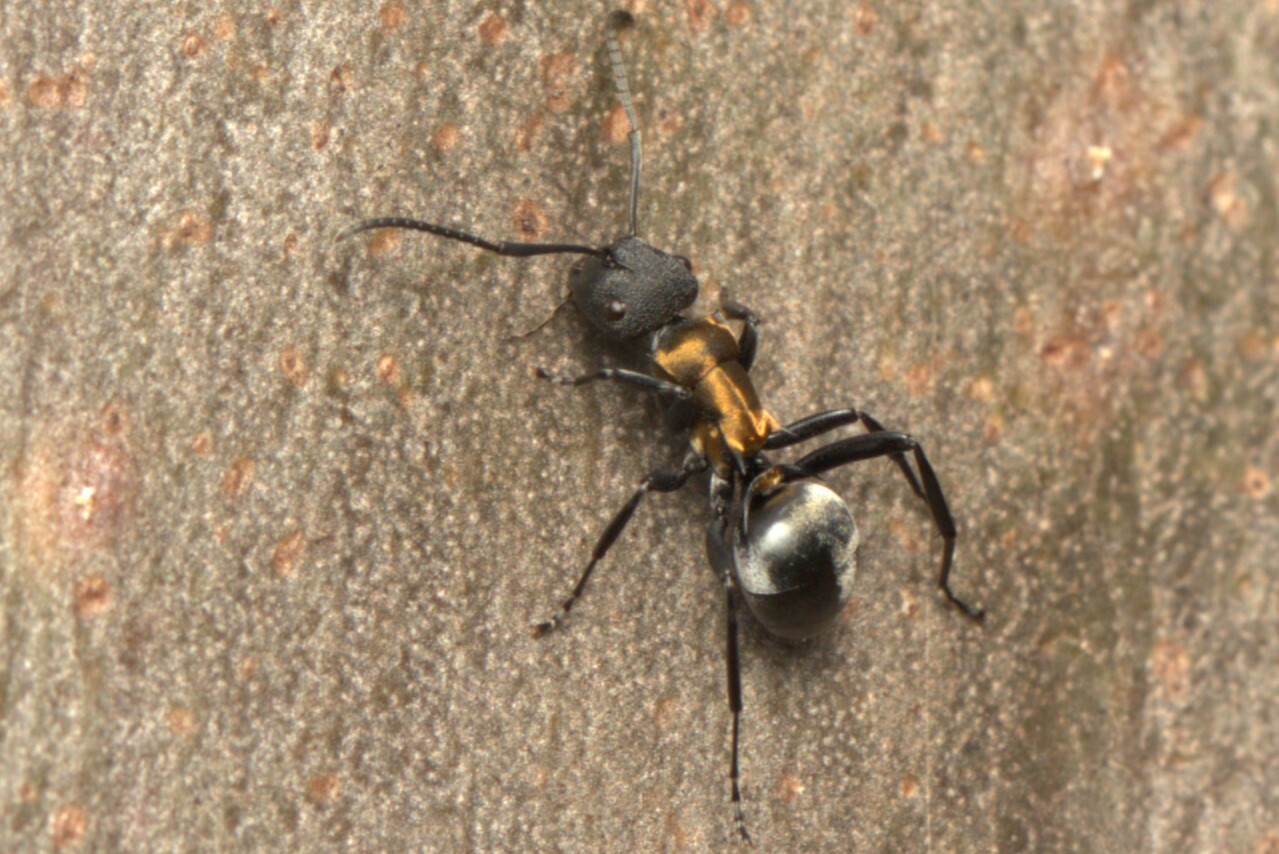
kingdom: Animalia
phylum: Arthropoda
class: Insecta
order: Hymenoptera
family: Formicidae
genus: Polyrhachis
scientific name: Polyrhachis ornata
